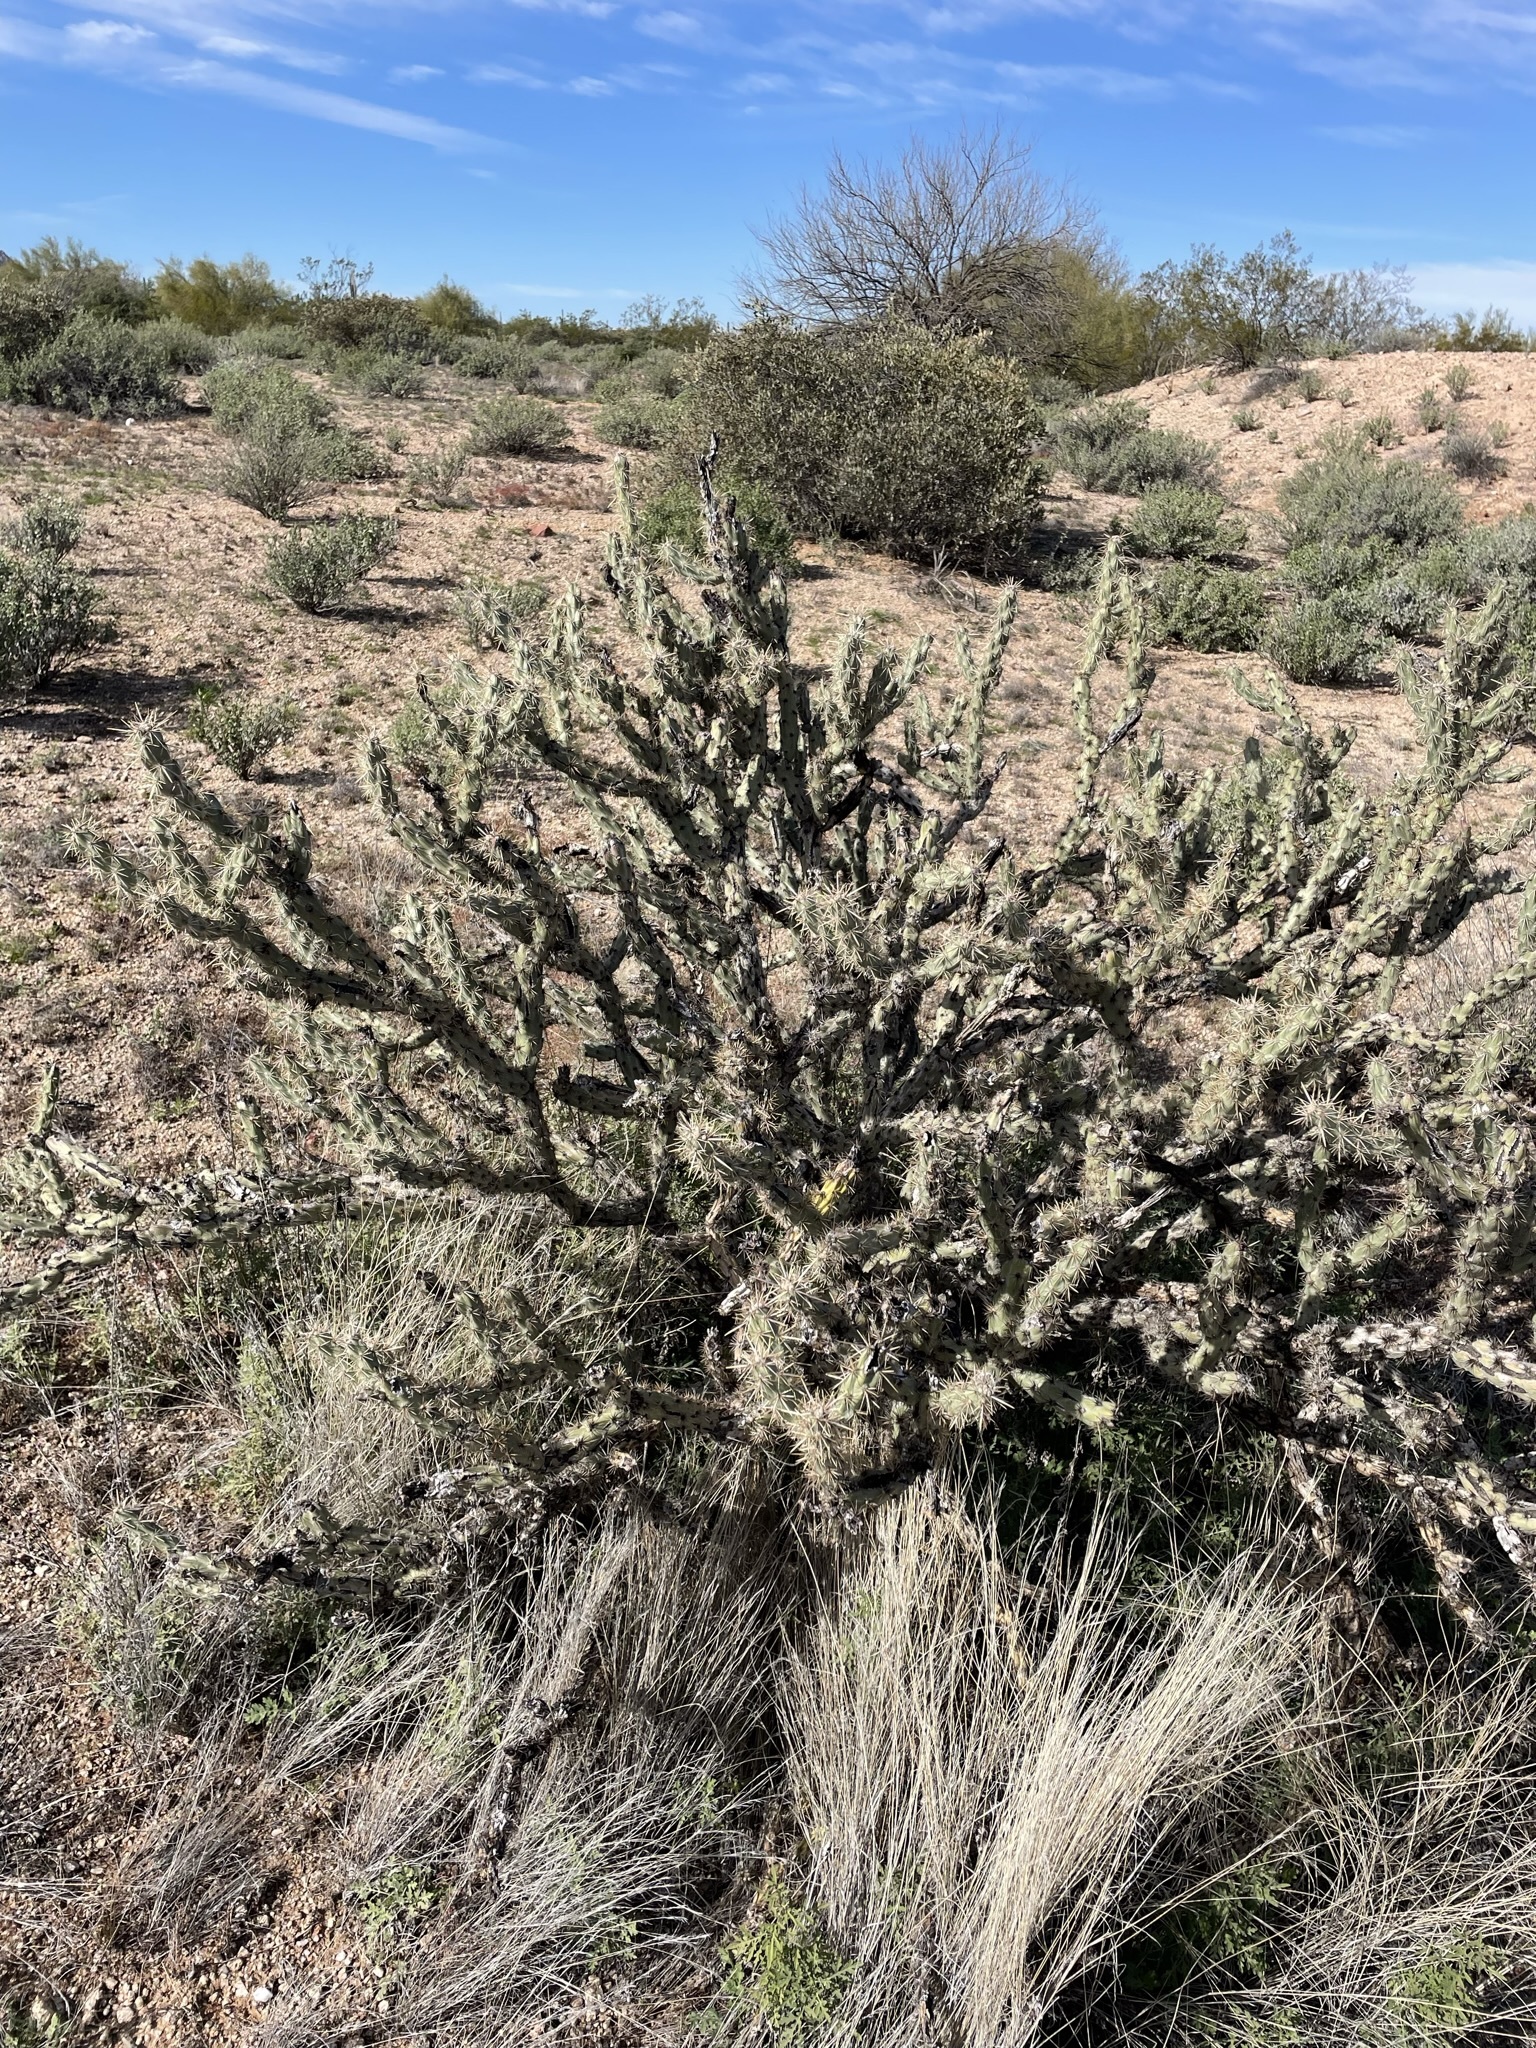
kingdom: Plantae
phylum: Tracheophyta
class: Magnoliopsida
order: Caryophyllales
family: Cactaceae
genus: Cylindropuntia
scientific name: Cylindropuntia acanthocarpa
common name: Buckhorn cholla
